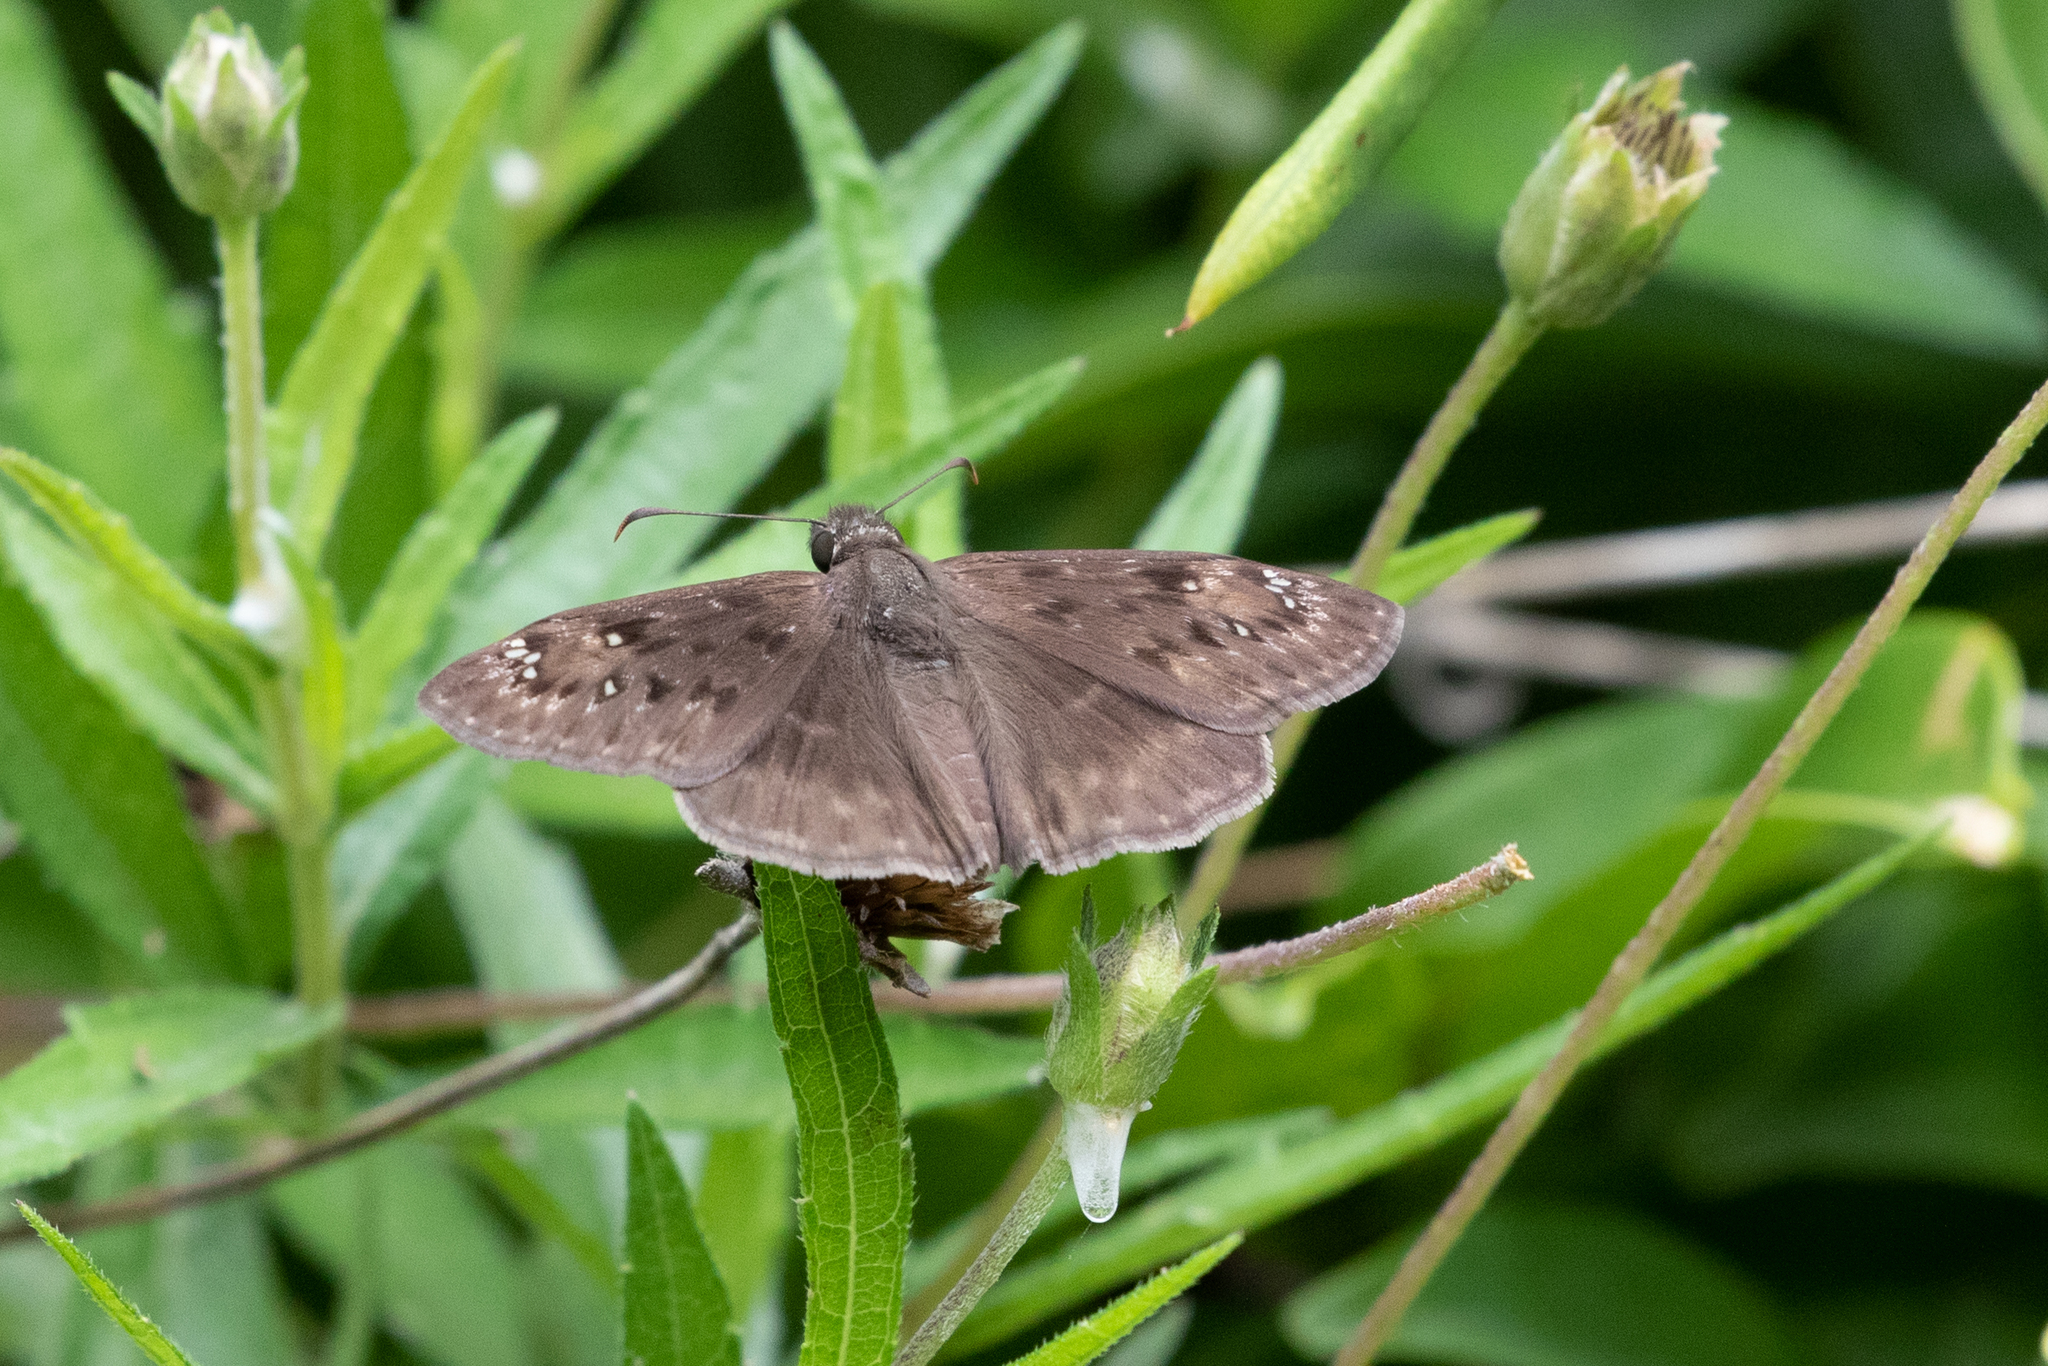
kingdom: Animalia
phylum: Arthropoda
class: Insecta
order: Lepidoptera
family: Hesperiidae
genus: Erynnis
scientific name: Erynnis horatius
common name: Horace's duskywing
